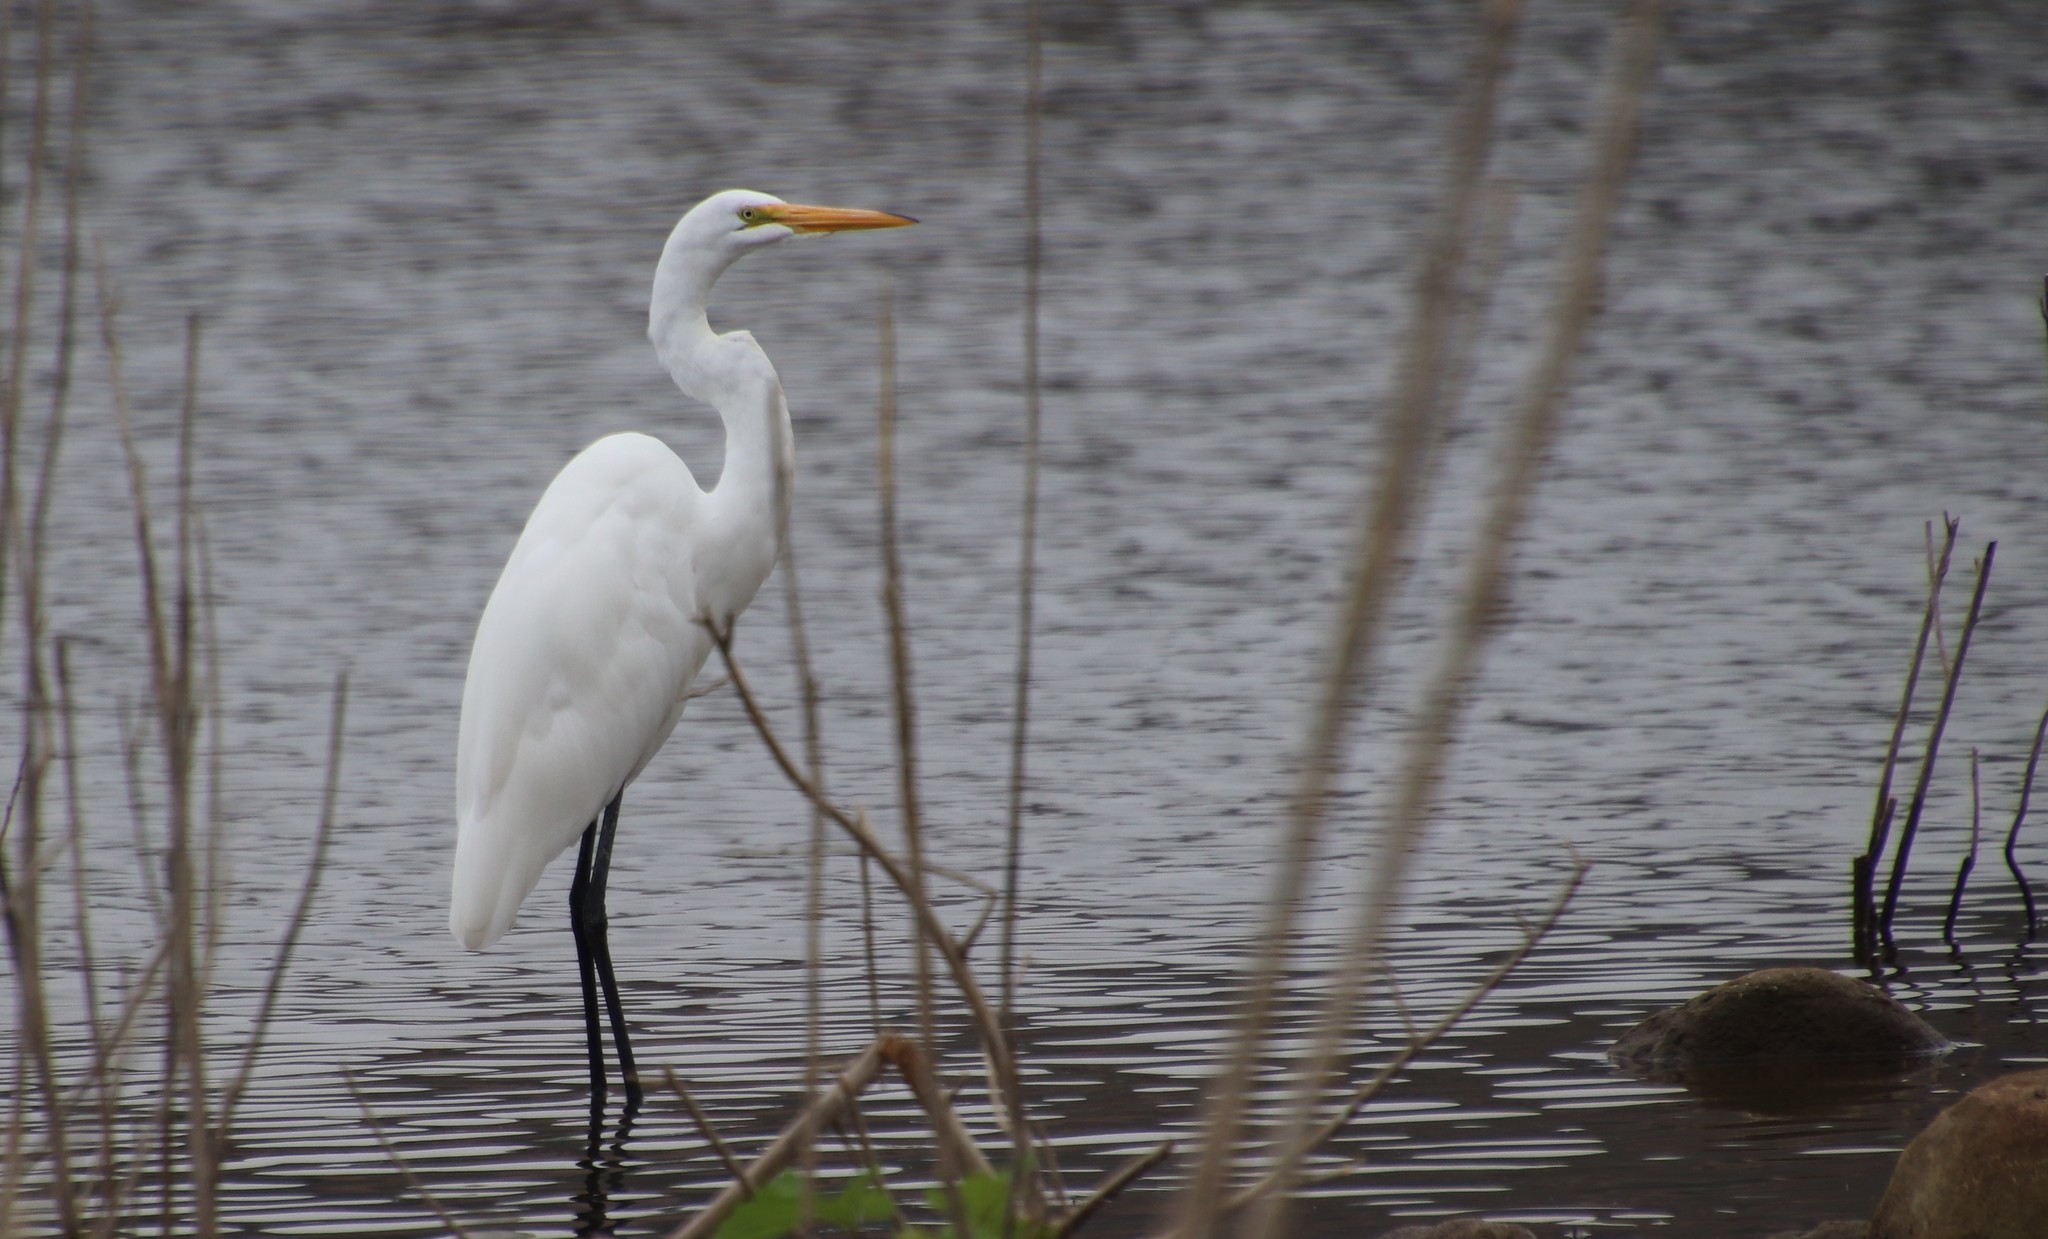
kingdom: Animalia
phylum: Chordata
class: Aves
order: Pelecaniformes
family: Ardeidae
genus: Ardea
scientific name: Ardea alba
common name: Great egret
